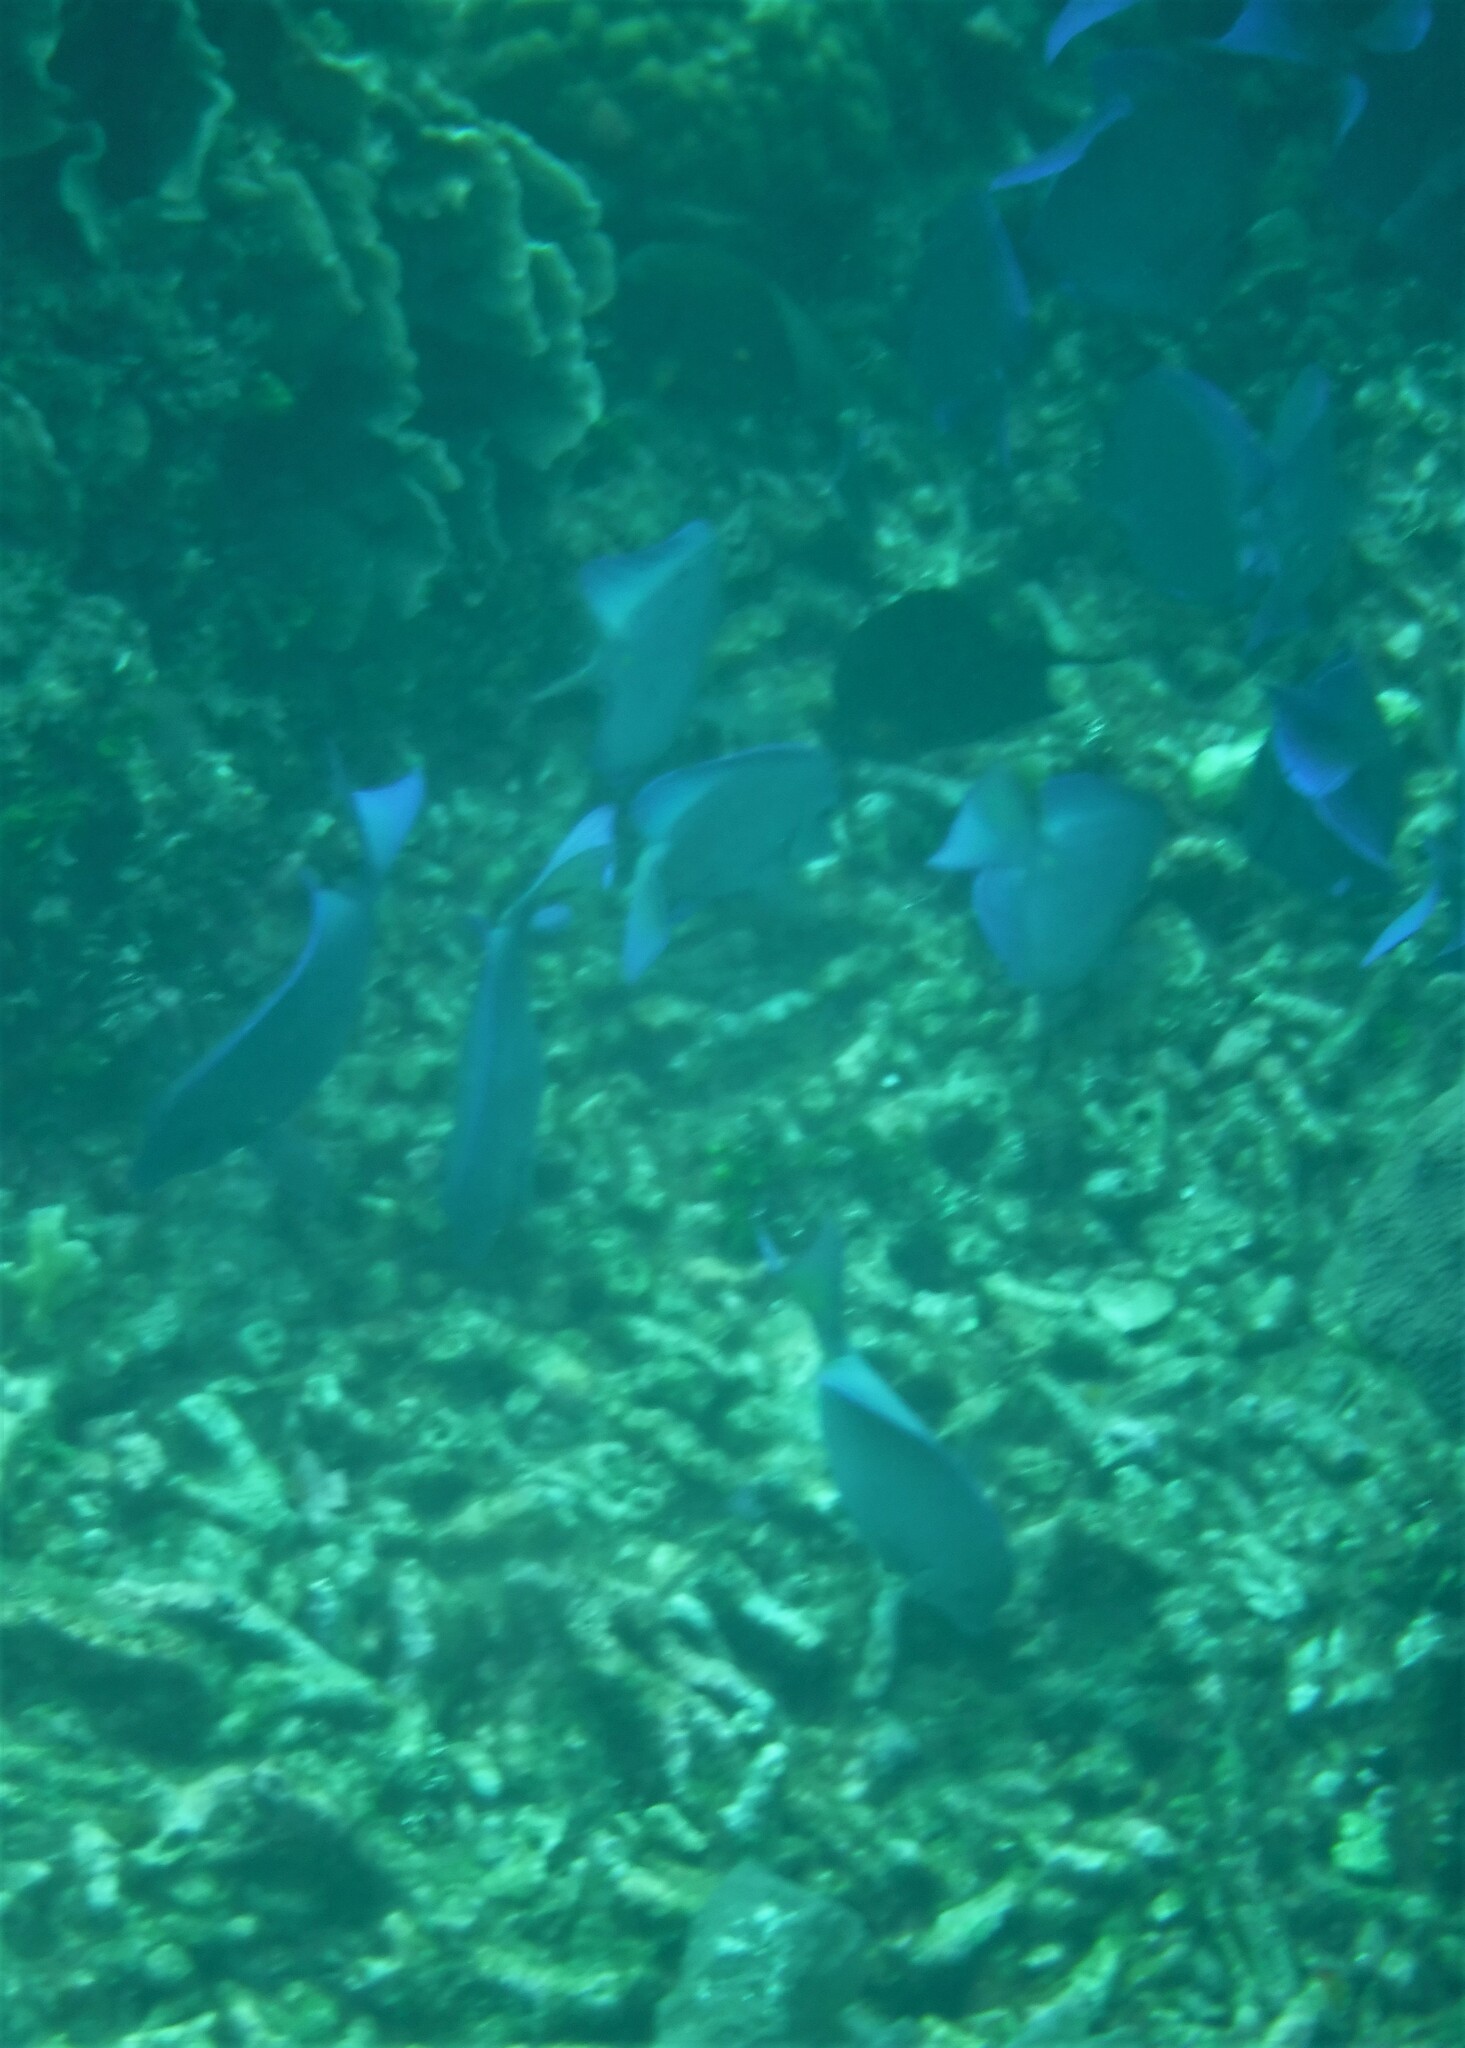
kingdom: Animalia
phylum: Chordata
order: Perciformes
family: Acanthuridae
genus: Acanthurus
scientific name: Acanthurus coeruleus
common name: Blue tang
